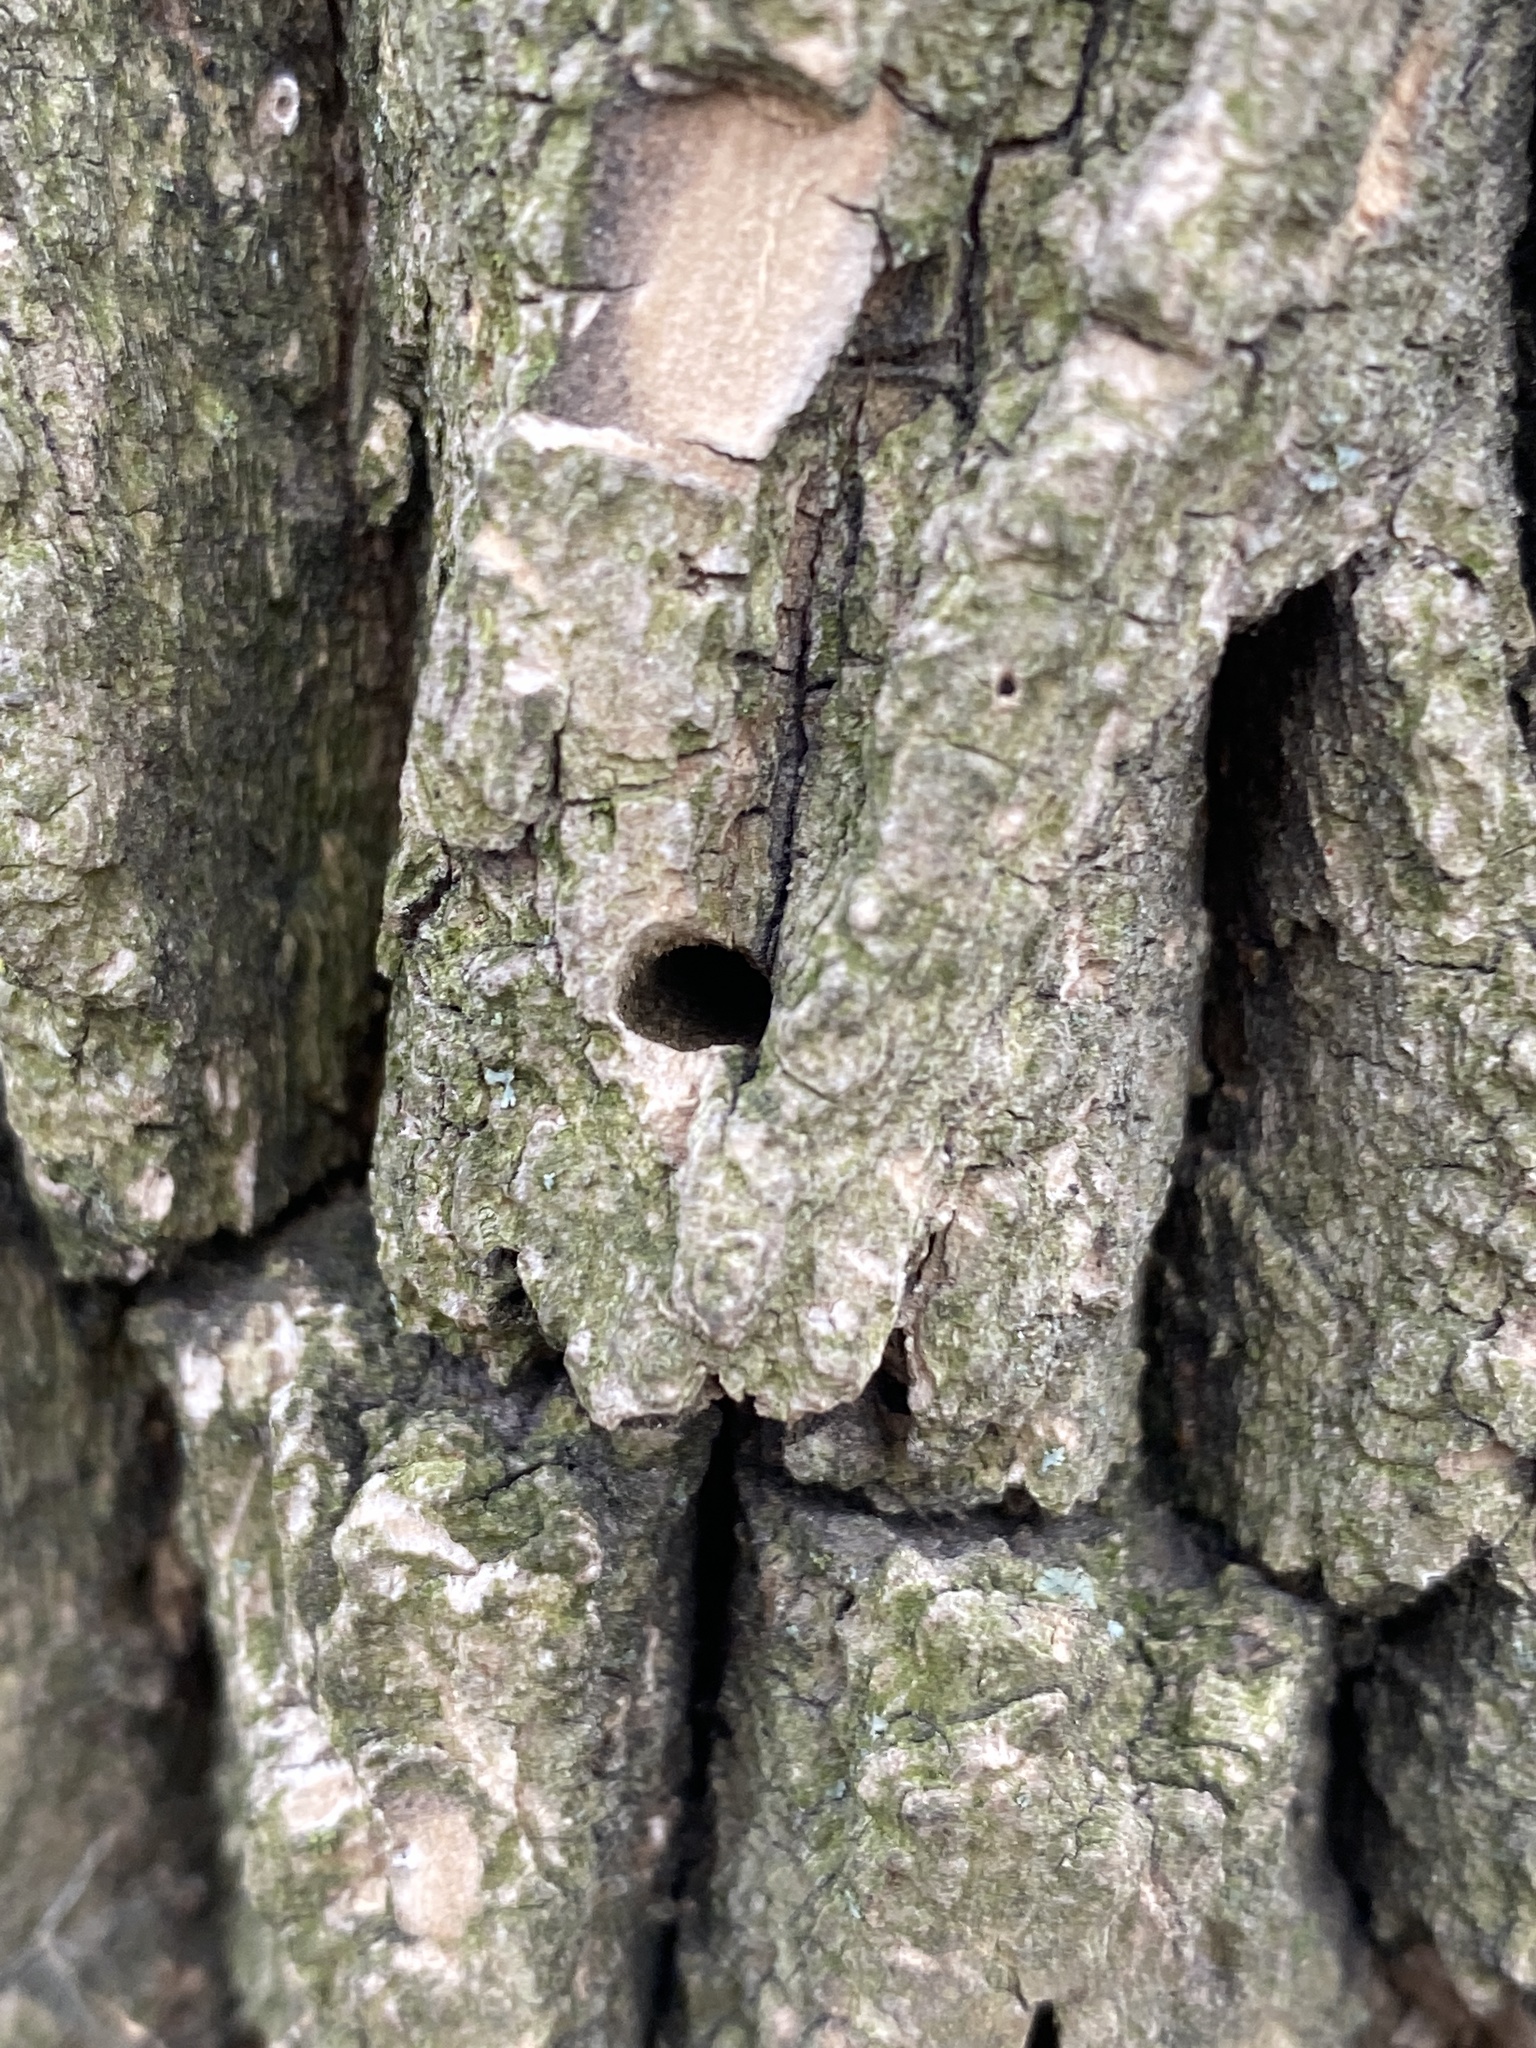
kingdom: Animalia
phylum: Arthropoda
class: Insecta
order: Coleoptera
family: Buprestidae
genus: Agrilus
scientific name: Agrilus planipennis
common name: Emerald ash borer
